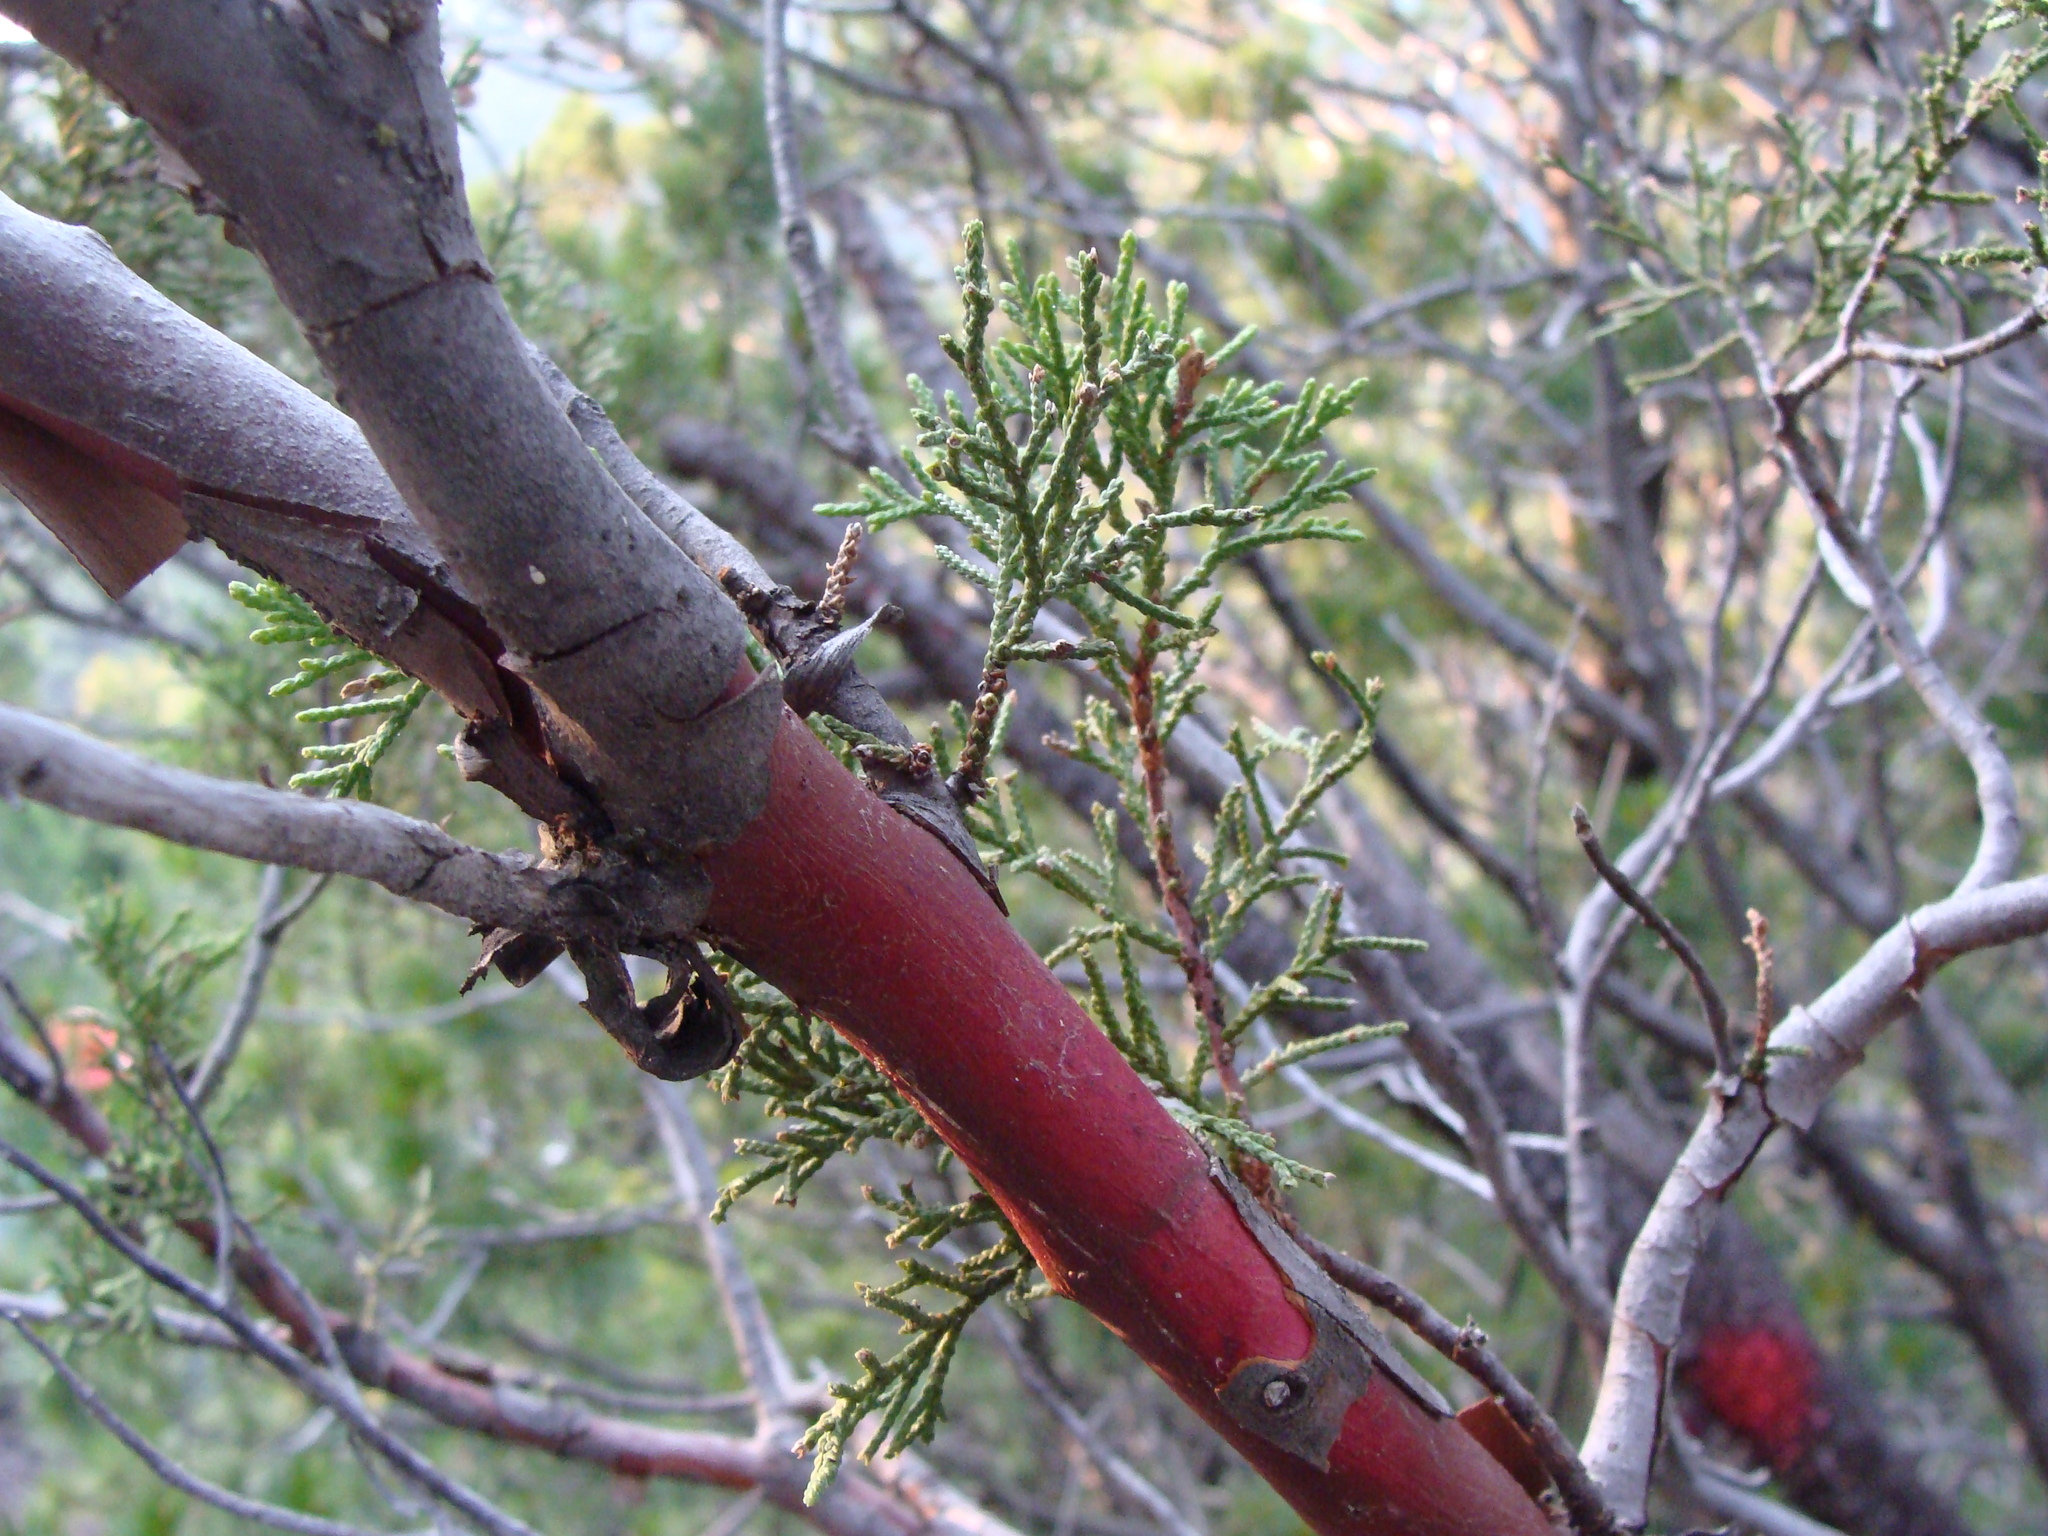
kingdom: Plantae
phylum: Tracheophyta
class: Pinopsida
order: Pinales
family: Cupressaceae
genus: Juniperus
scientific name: Juniperus deppeana
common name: Alligator juniper
